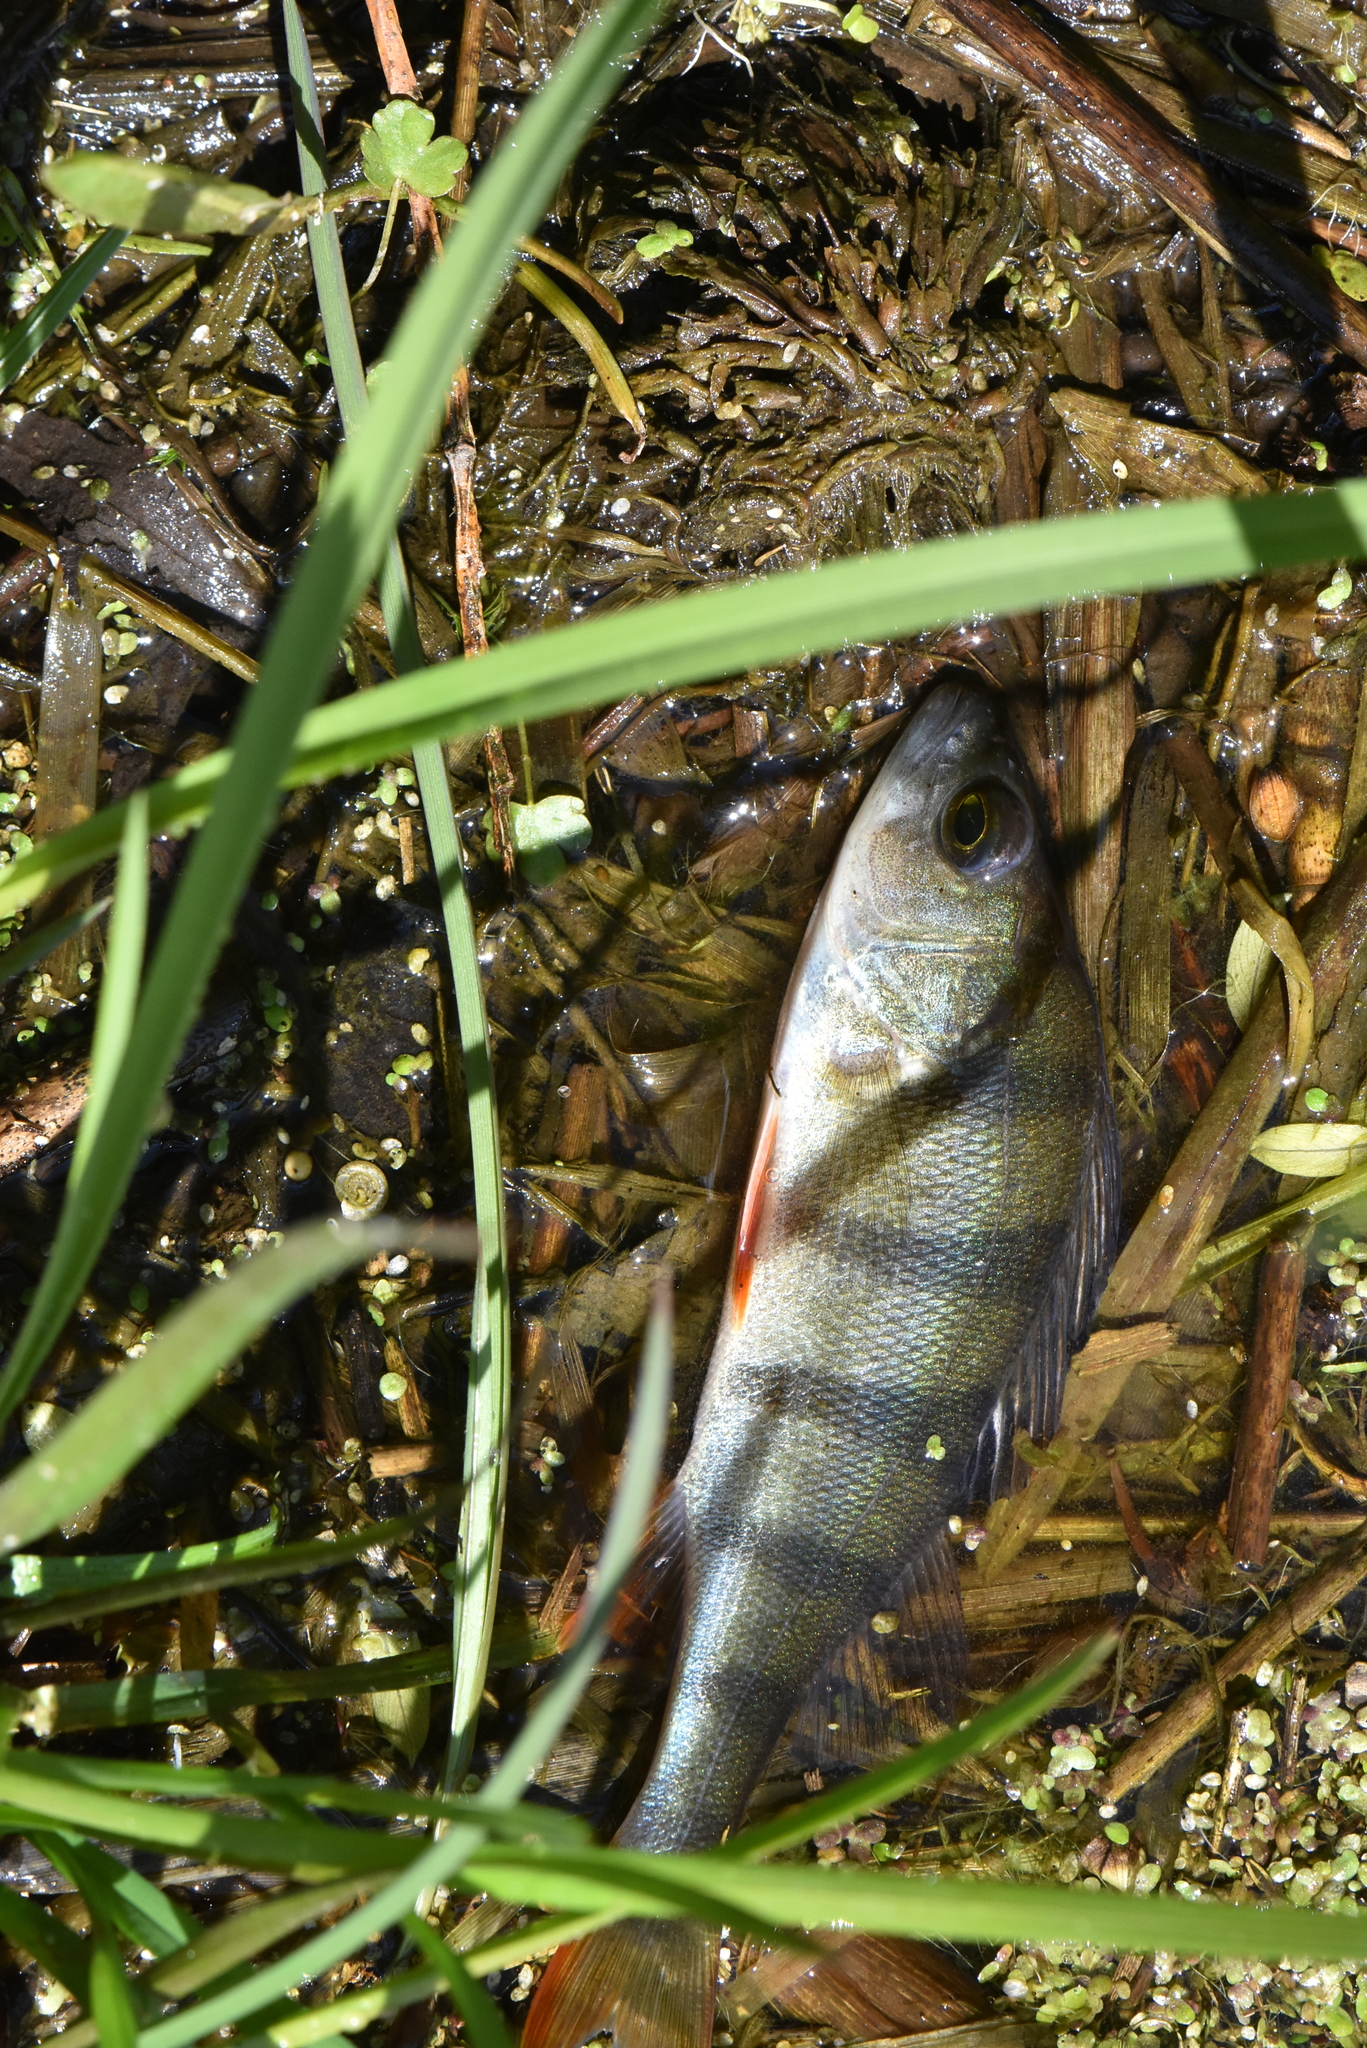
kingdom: Animalia
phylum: Chordata
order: Perciformes
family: Percidae
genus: Perca
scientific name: Perca fluviatilis
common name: Perch
